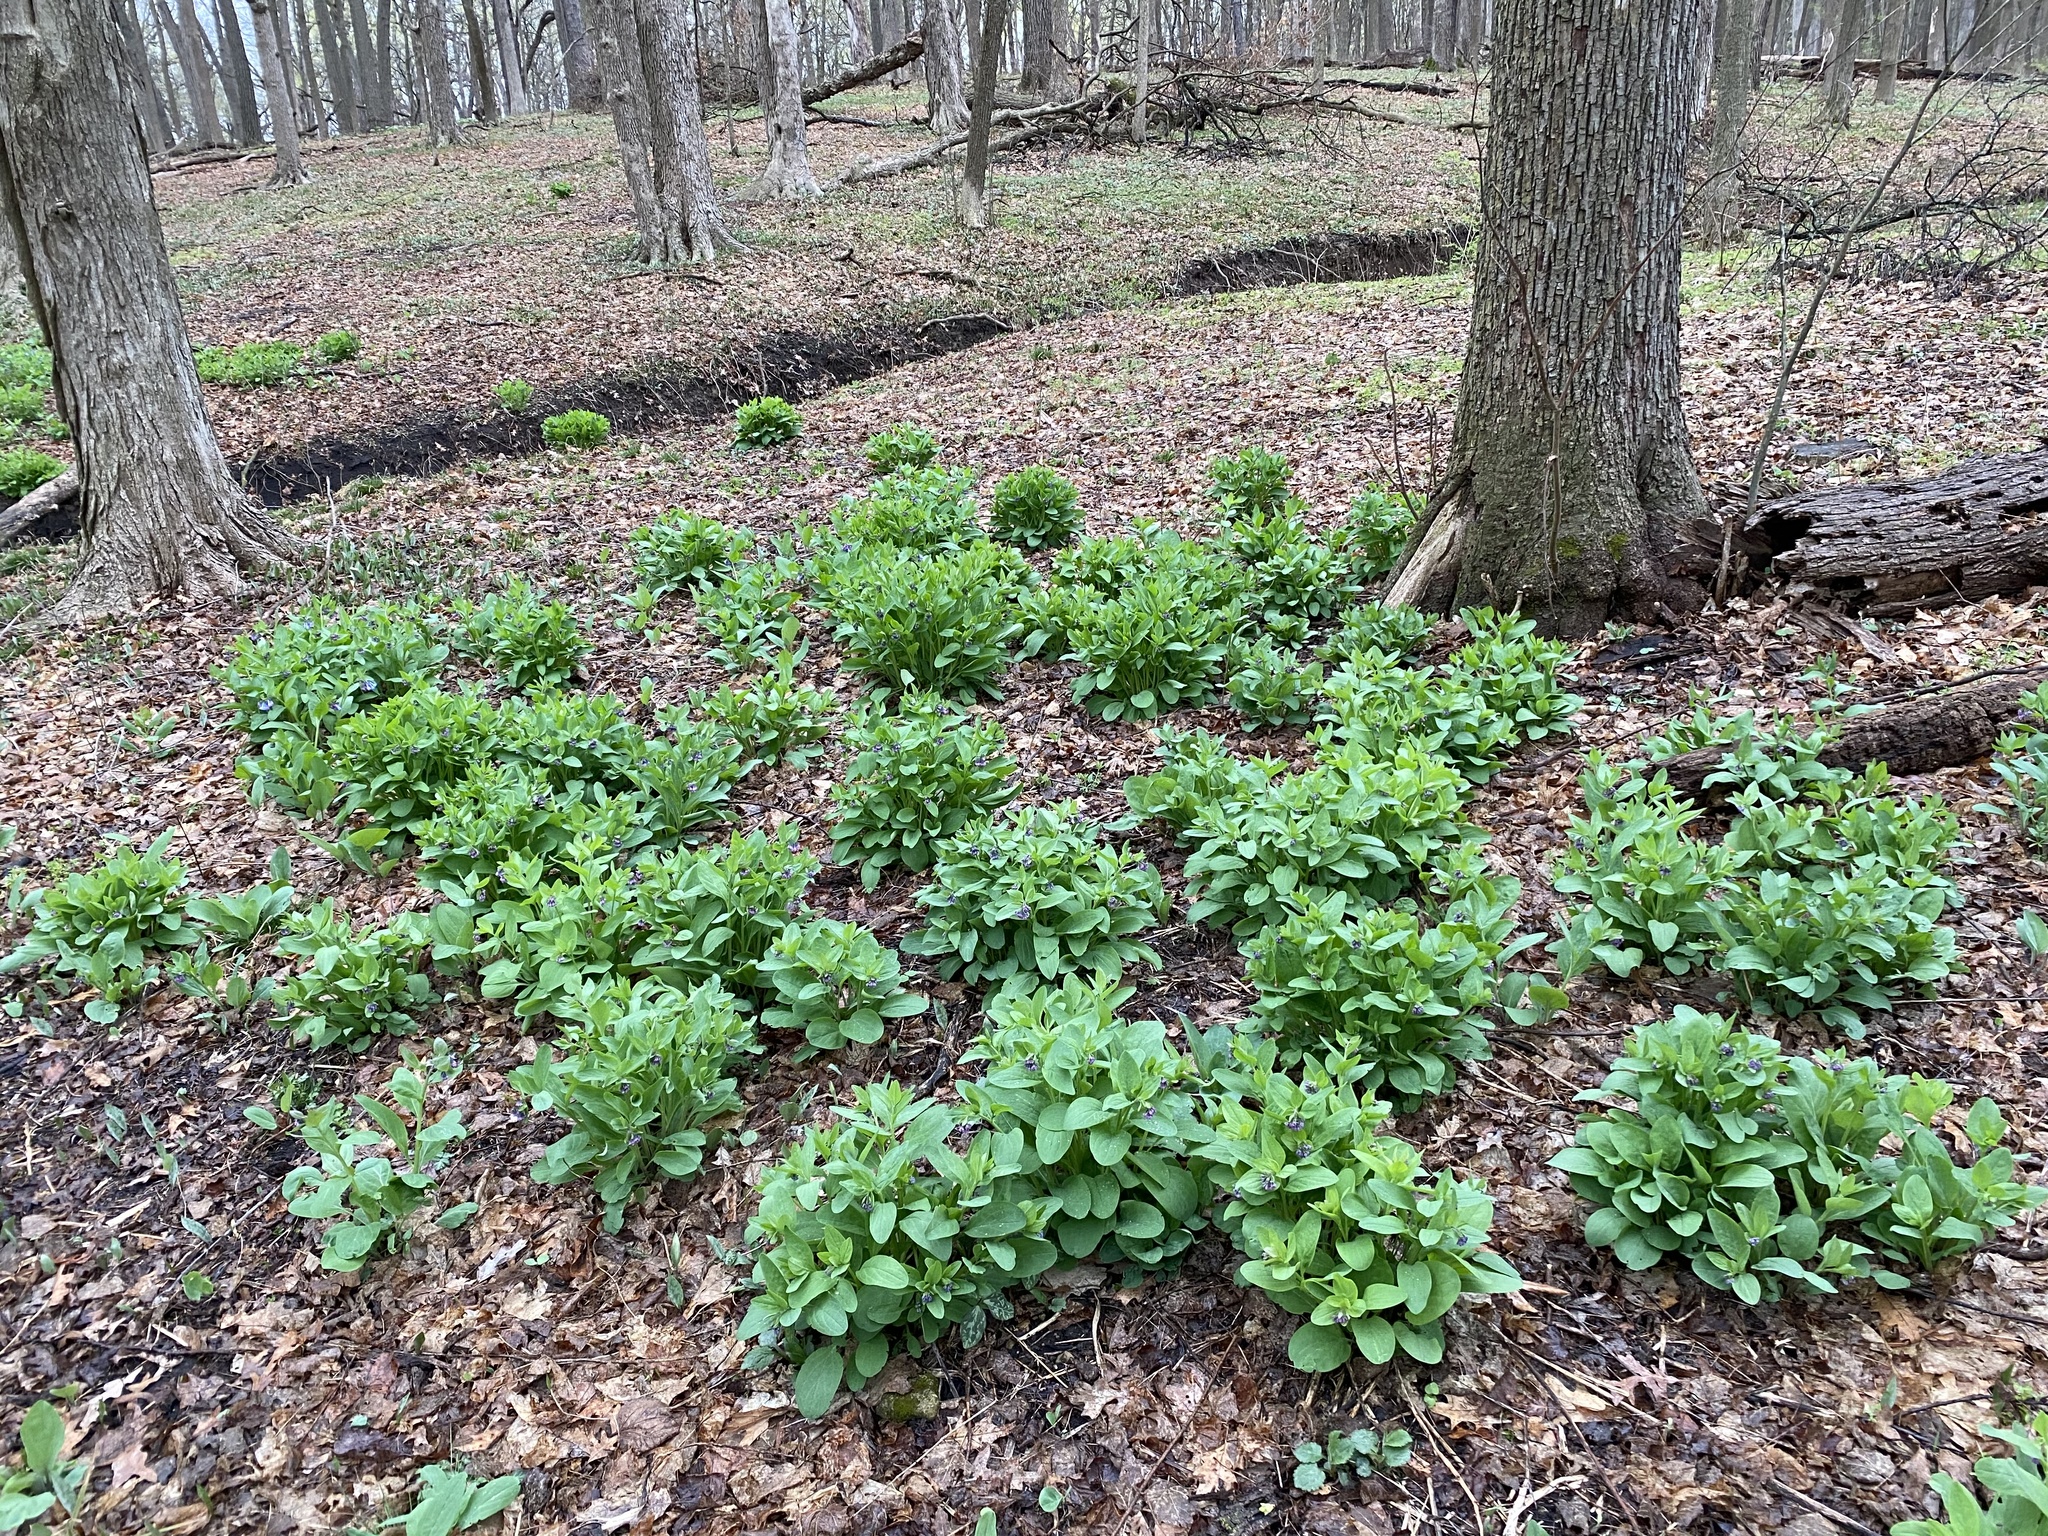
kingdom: Plantae
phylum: Tracheophyta
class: Magnoliopsida
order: Boraginales
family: Boraginaceae
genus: Mertensia
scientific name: Mertensia virginica
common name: Virginia bluebells
